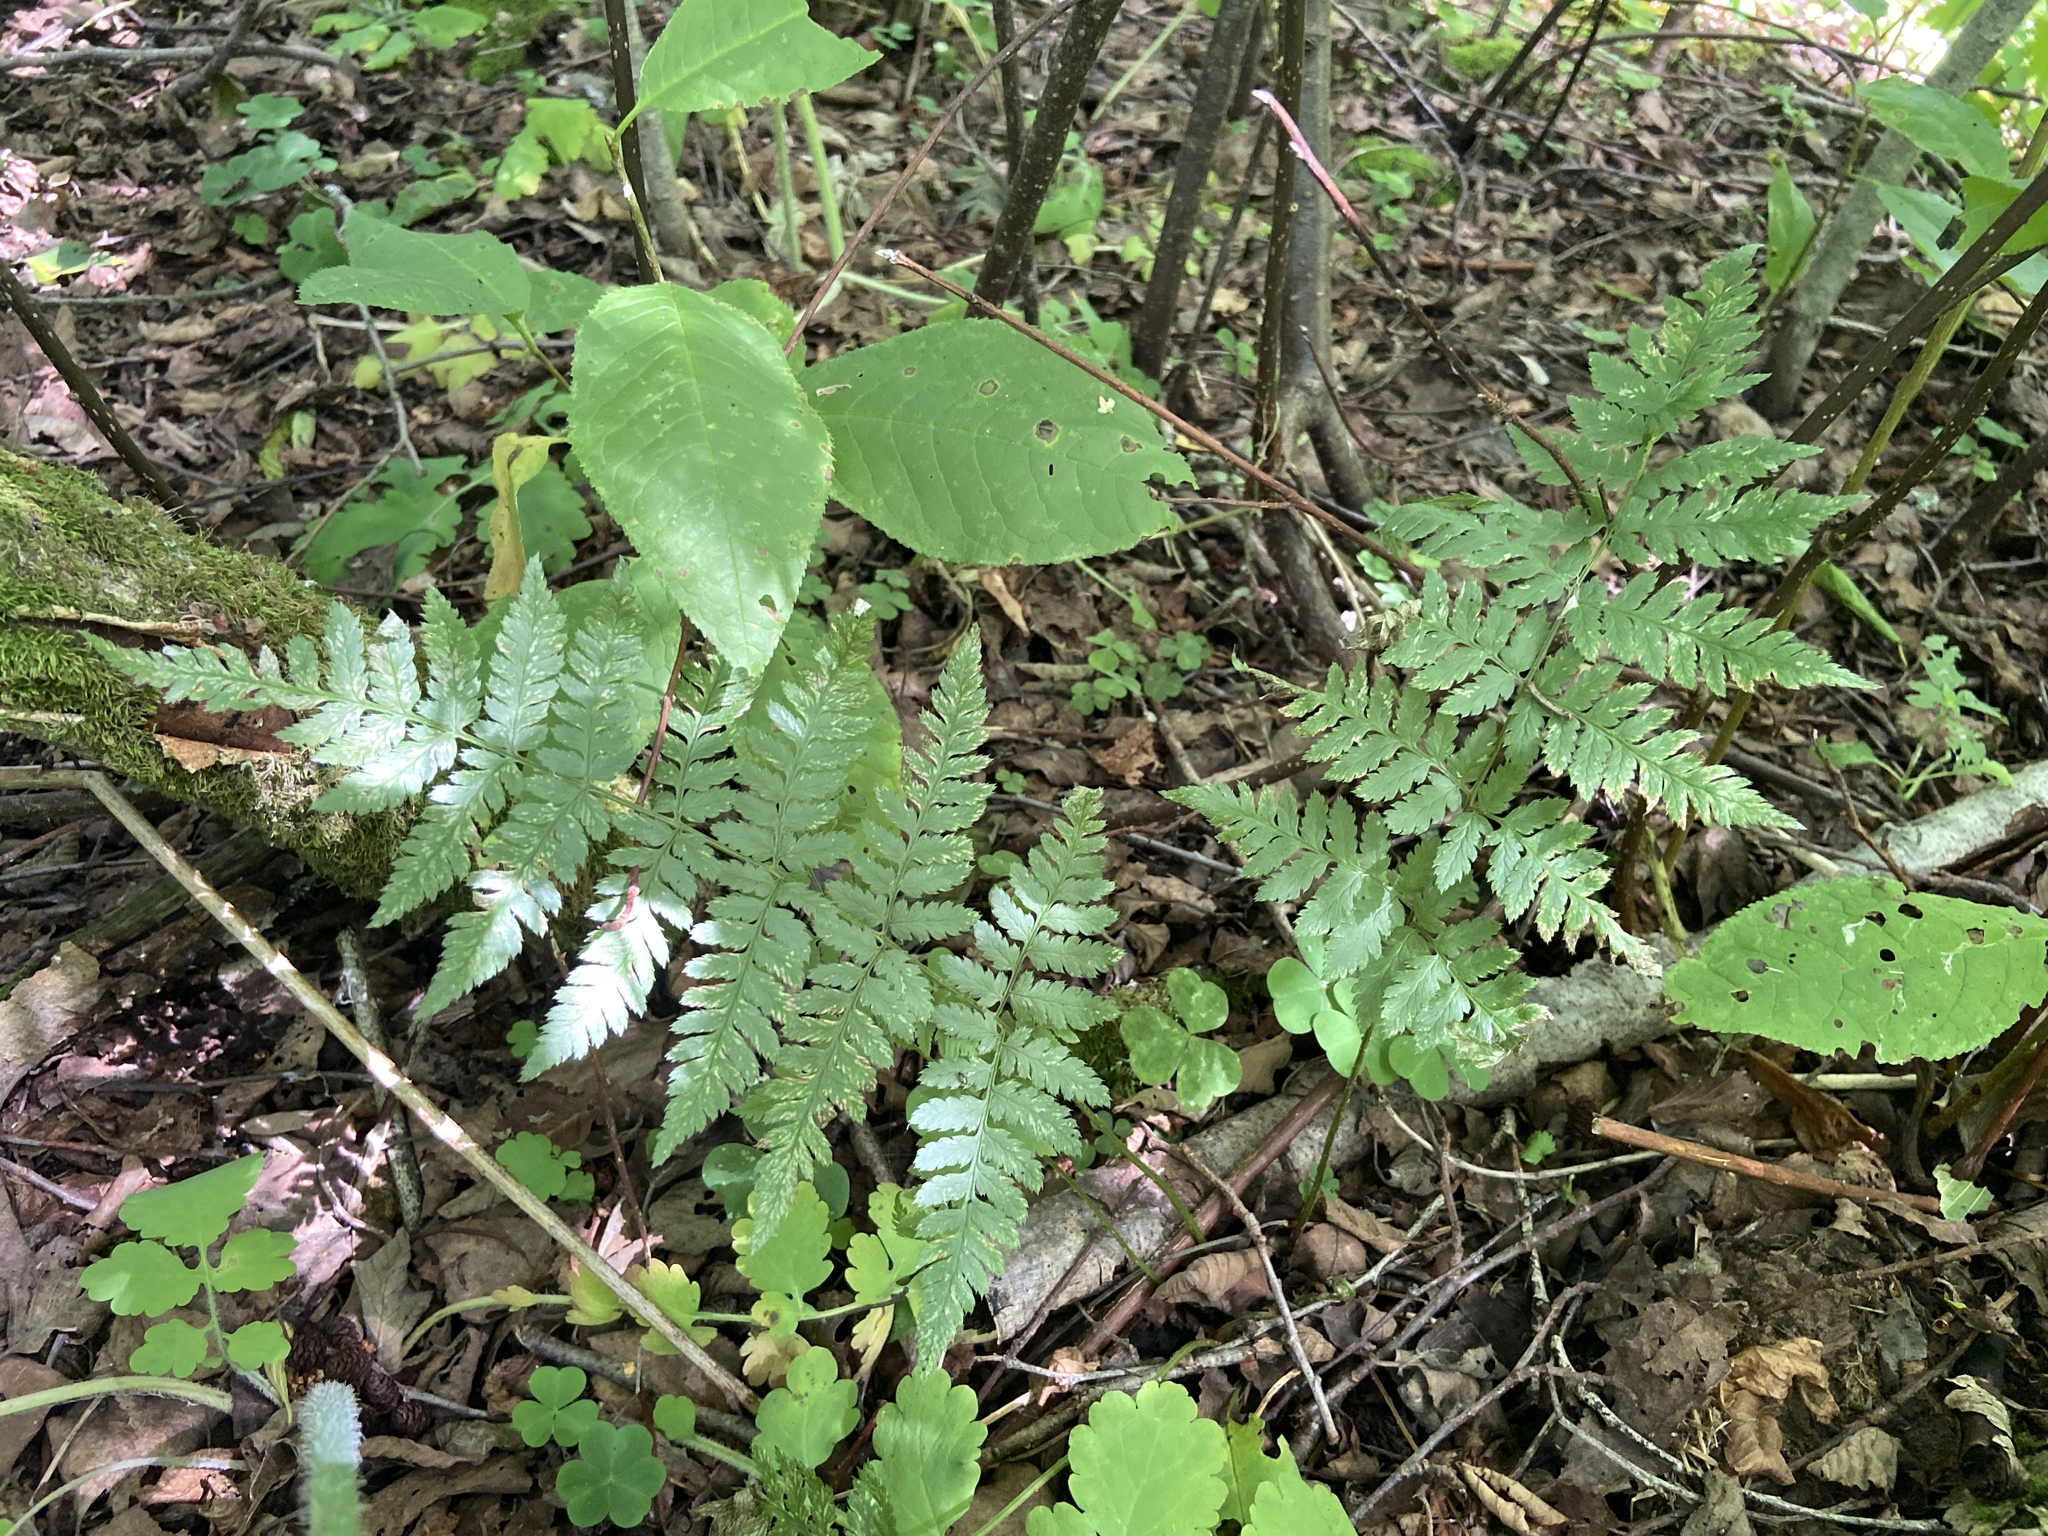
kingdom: Plantae
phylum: Tracheophyta
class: Polypodiopsida
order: Polypodiales
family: Dryopteridaceae
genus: Dryopteris
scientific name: Dryopteris carthusiana
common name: Narrow buckler-fern
